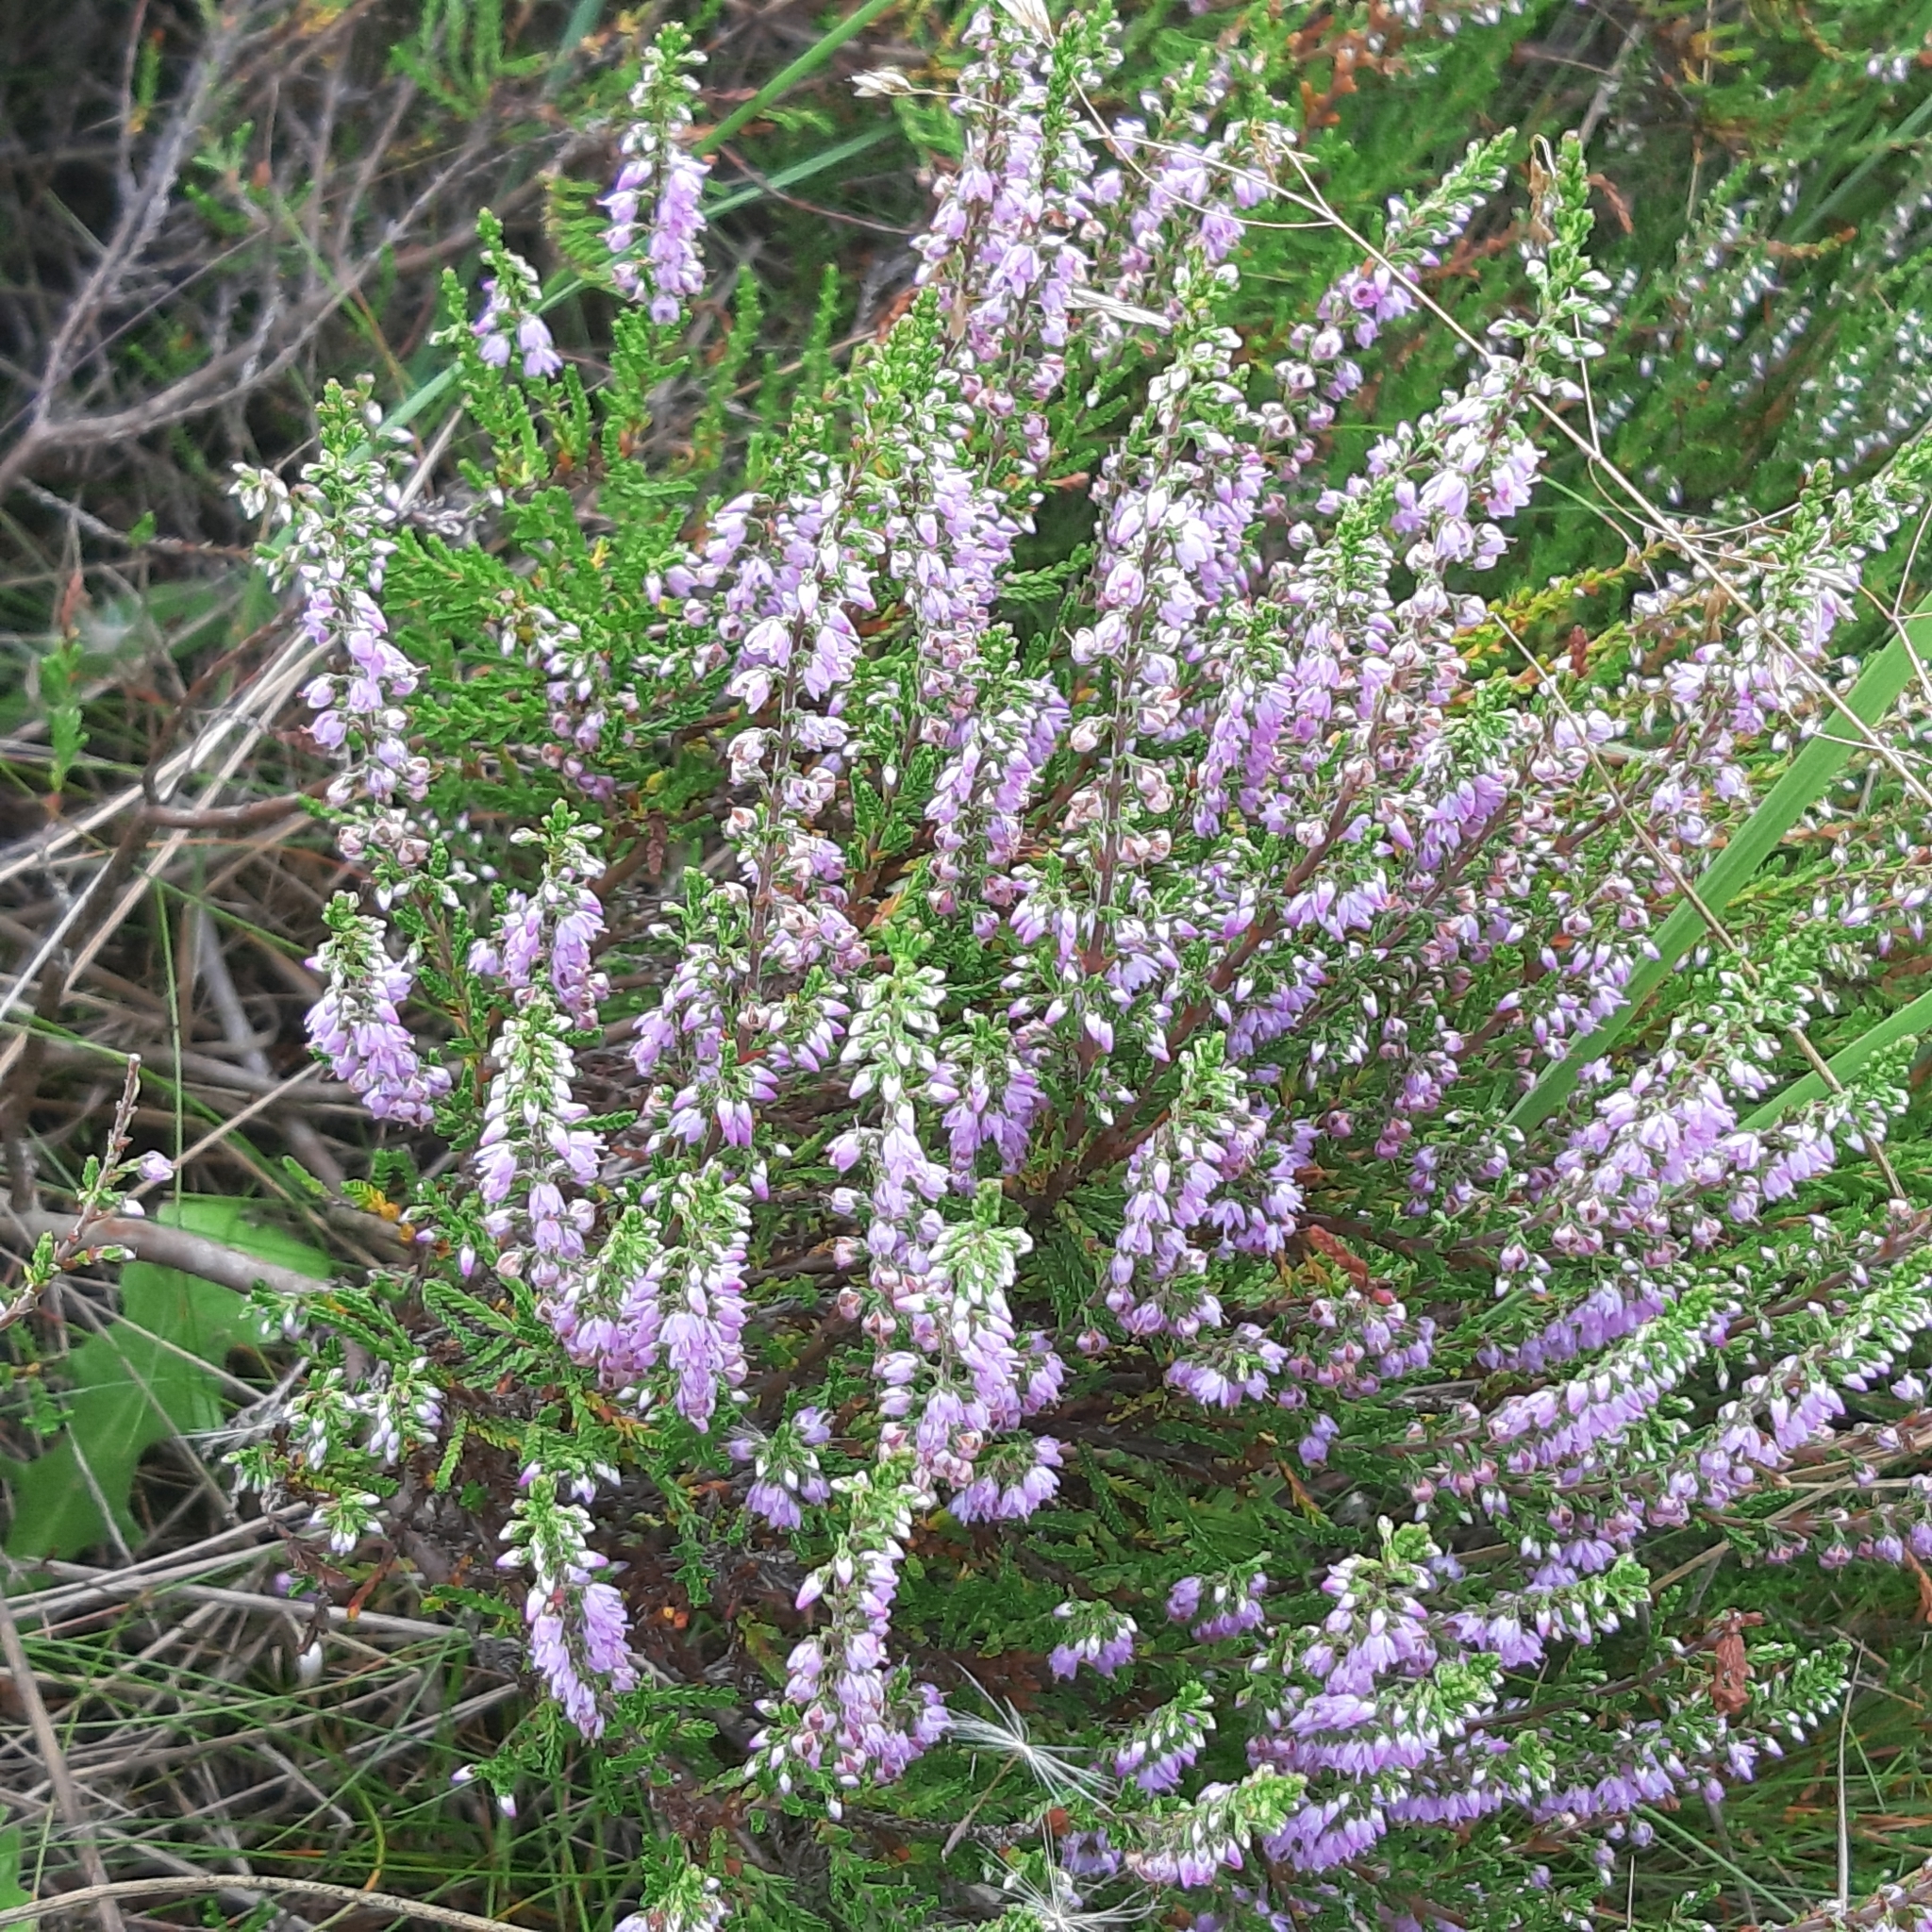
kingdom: Plantae
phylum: Tracheophyta
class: Magnoliopsida
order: Ericales
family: Ericaceae
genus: Calluna
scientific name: Calluna vulgaris
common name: Heather
